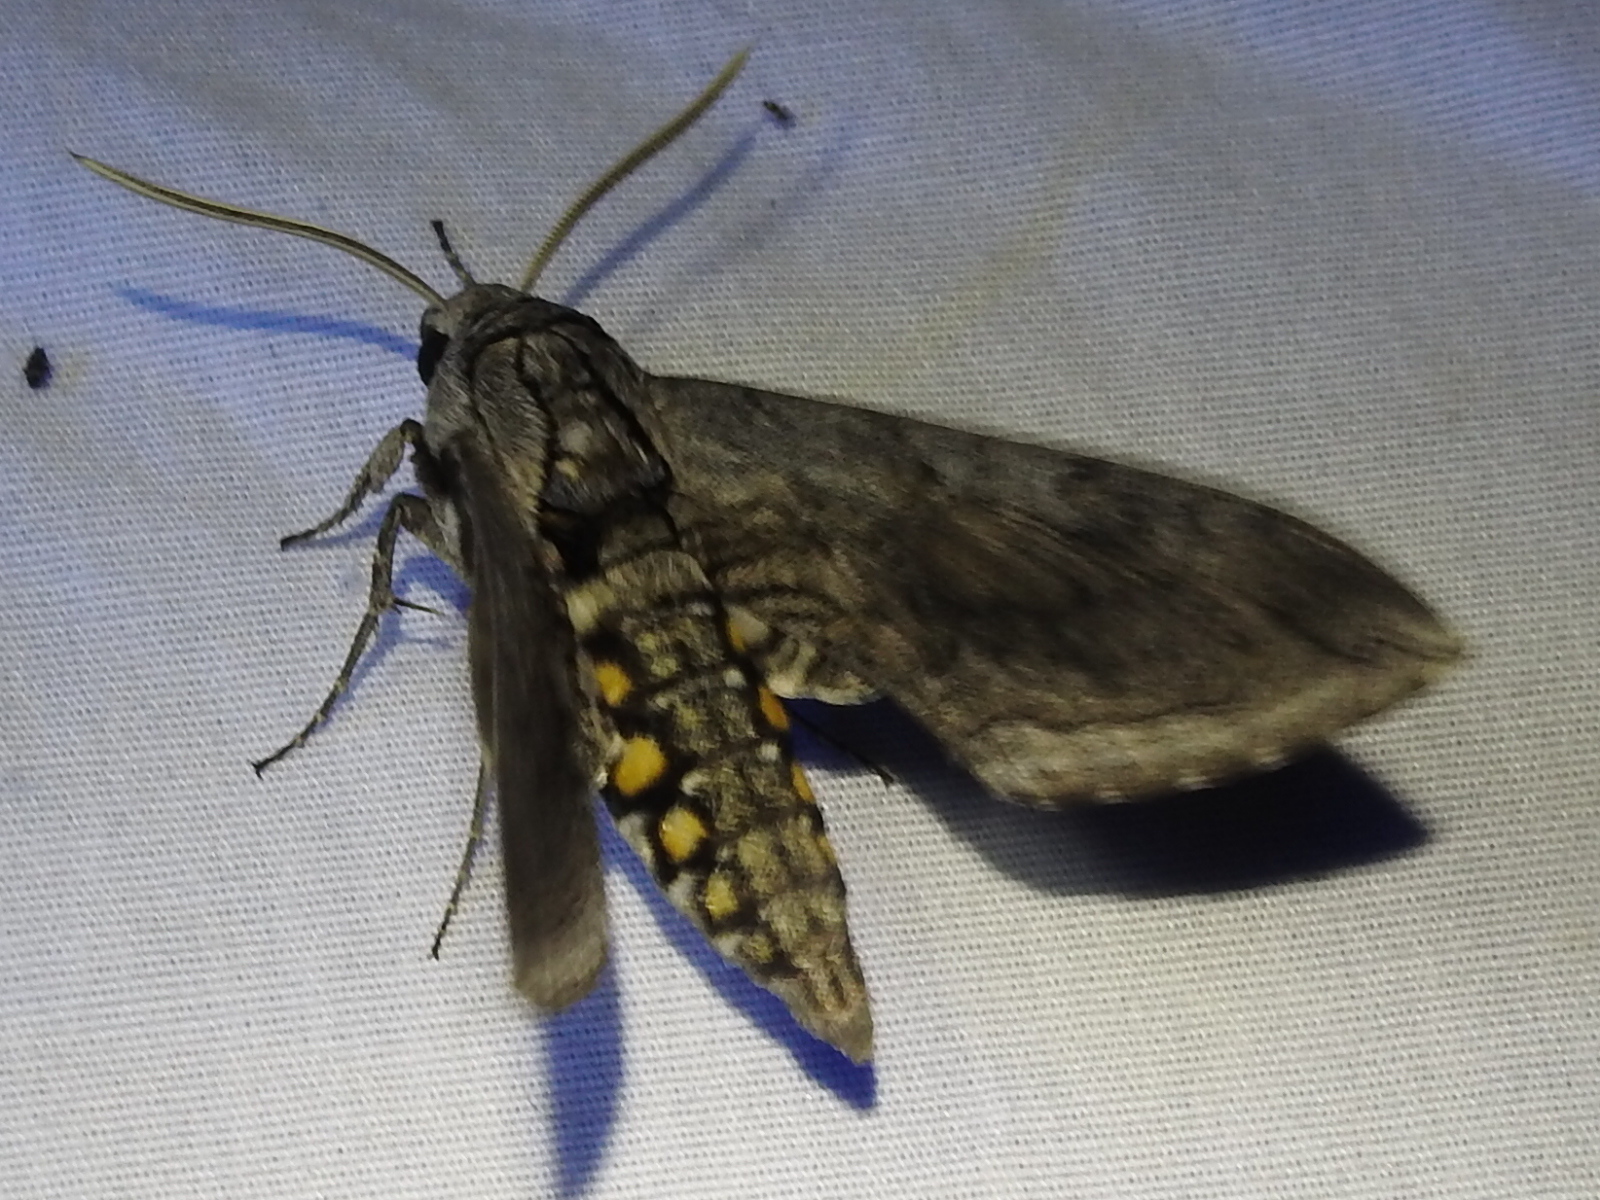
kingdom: Animalia
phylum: Arthropoda
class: Insecta
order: Lepidoptera
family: Sphingidae
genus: Manduca
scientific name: Manduca quinquemaculatus
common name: Five-spotted hawk-moth
